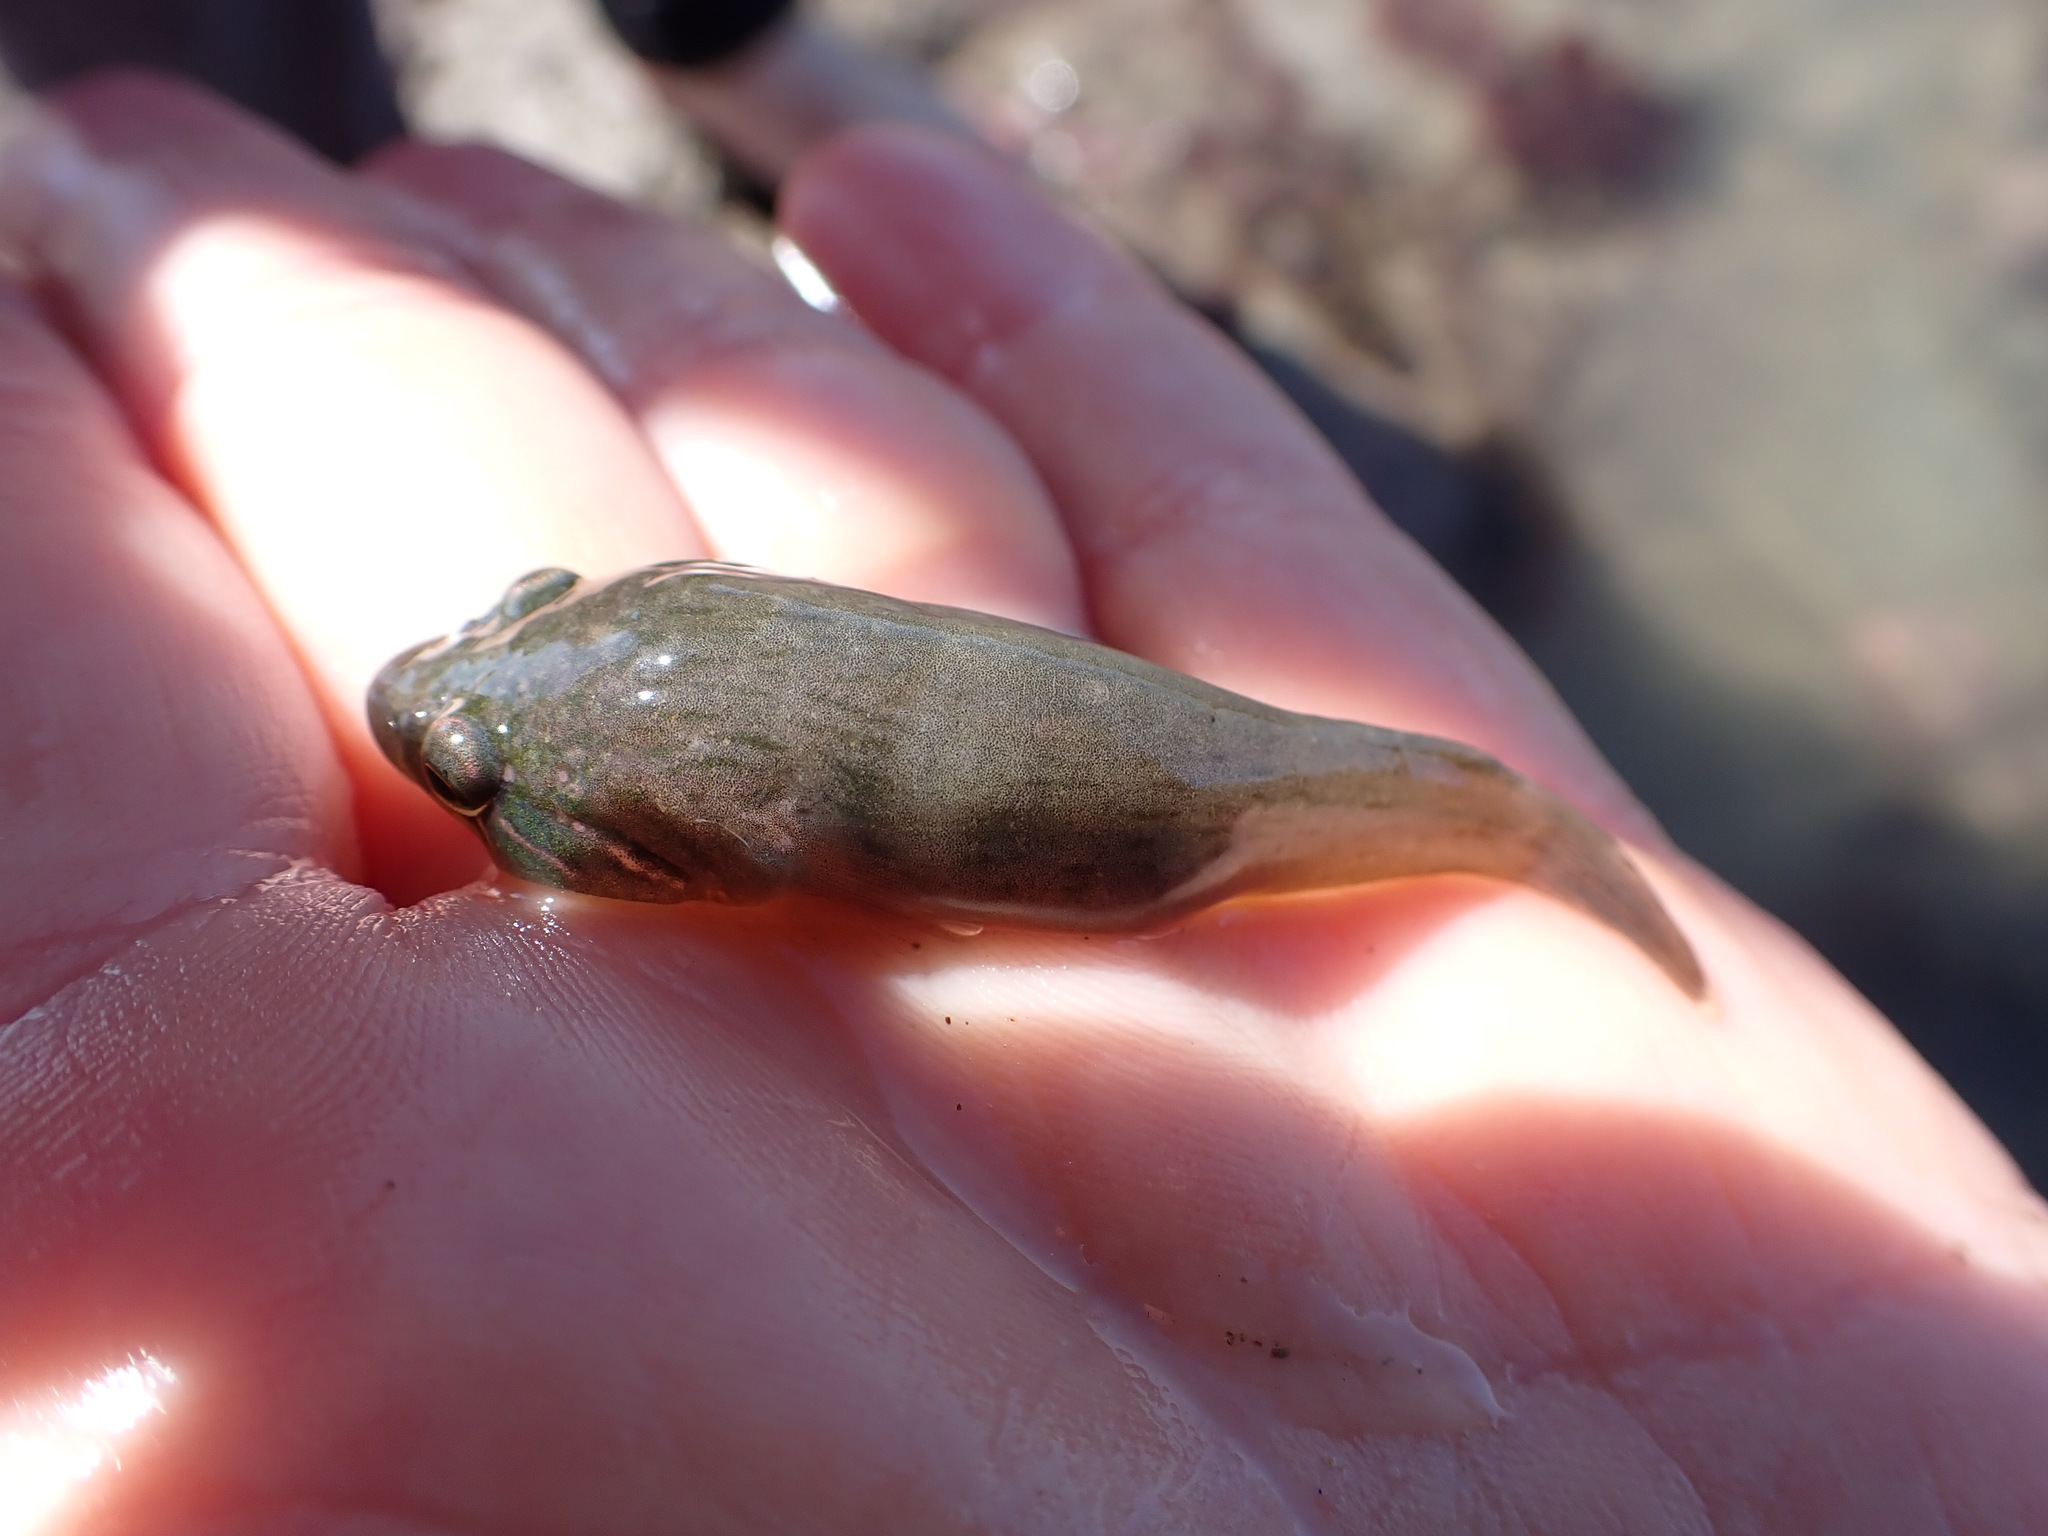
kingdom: Animalia
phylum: Chordata
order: Gobiesociformes
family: Gobiesocidae
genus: Trachelochismus
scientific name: Trachelochismus pinnulatus
